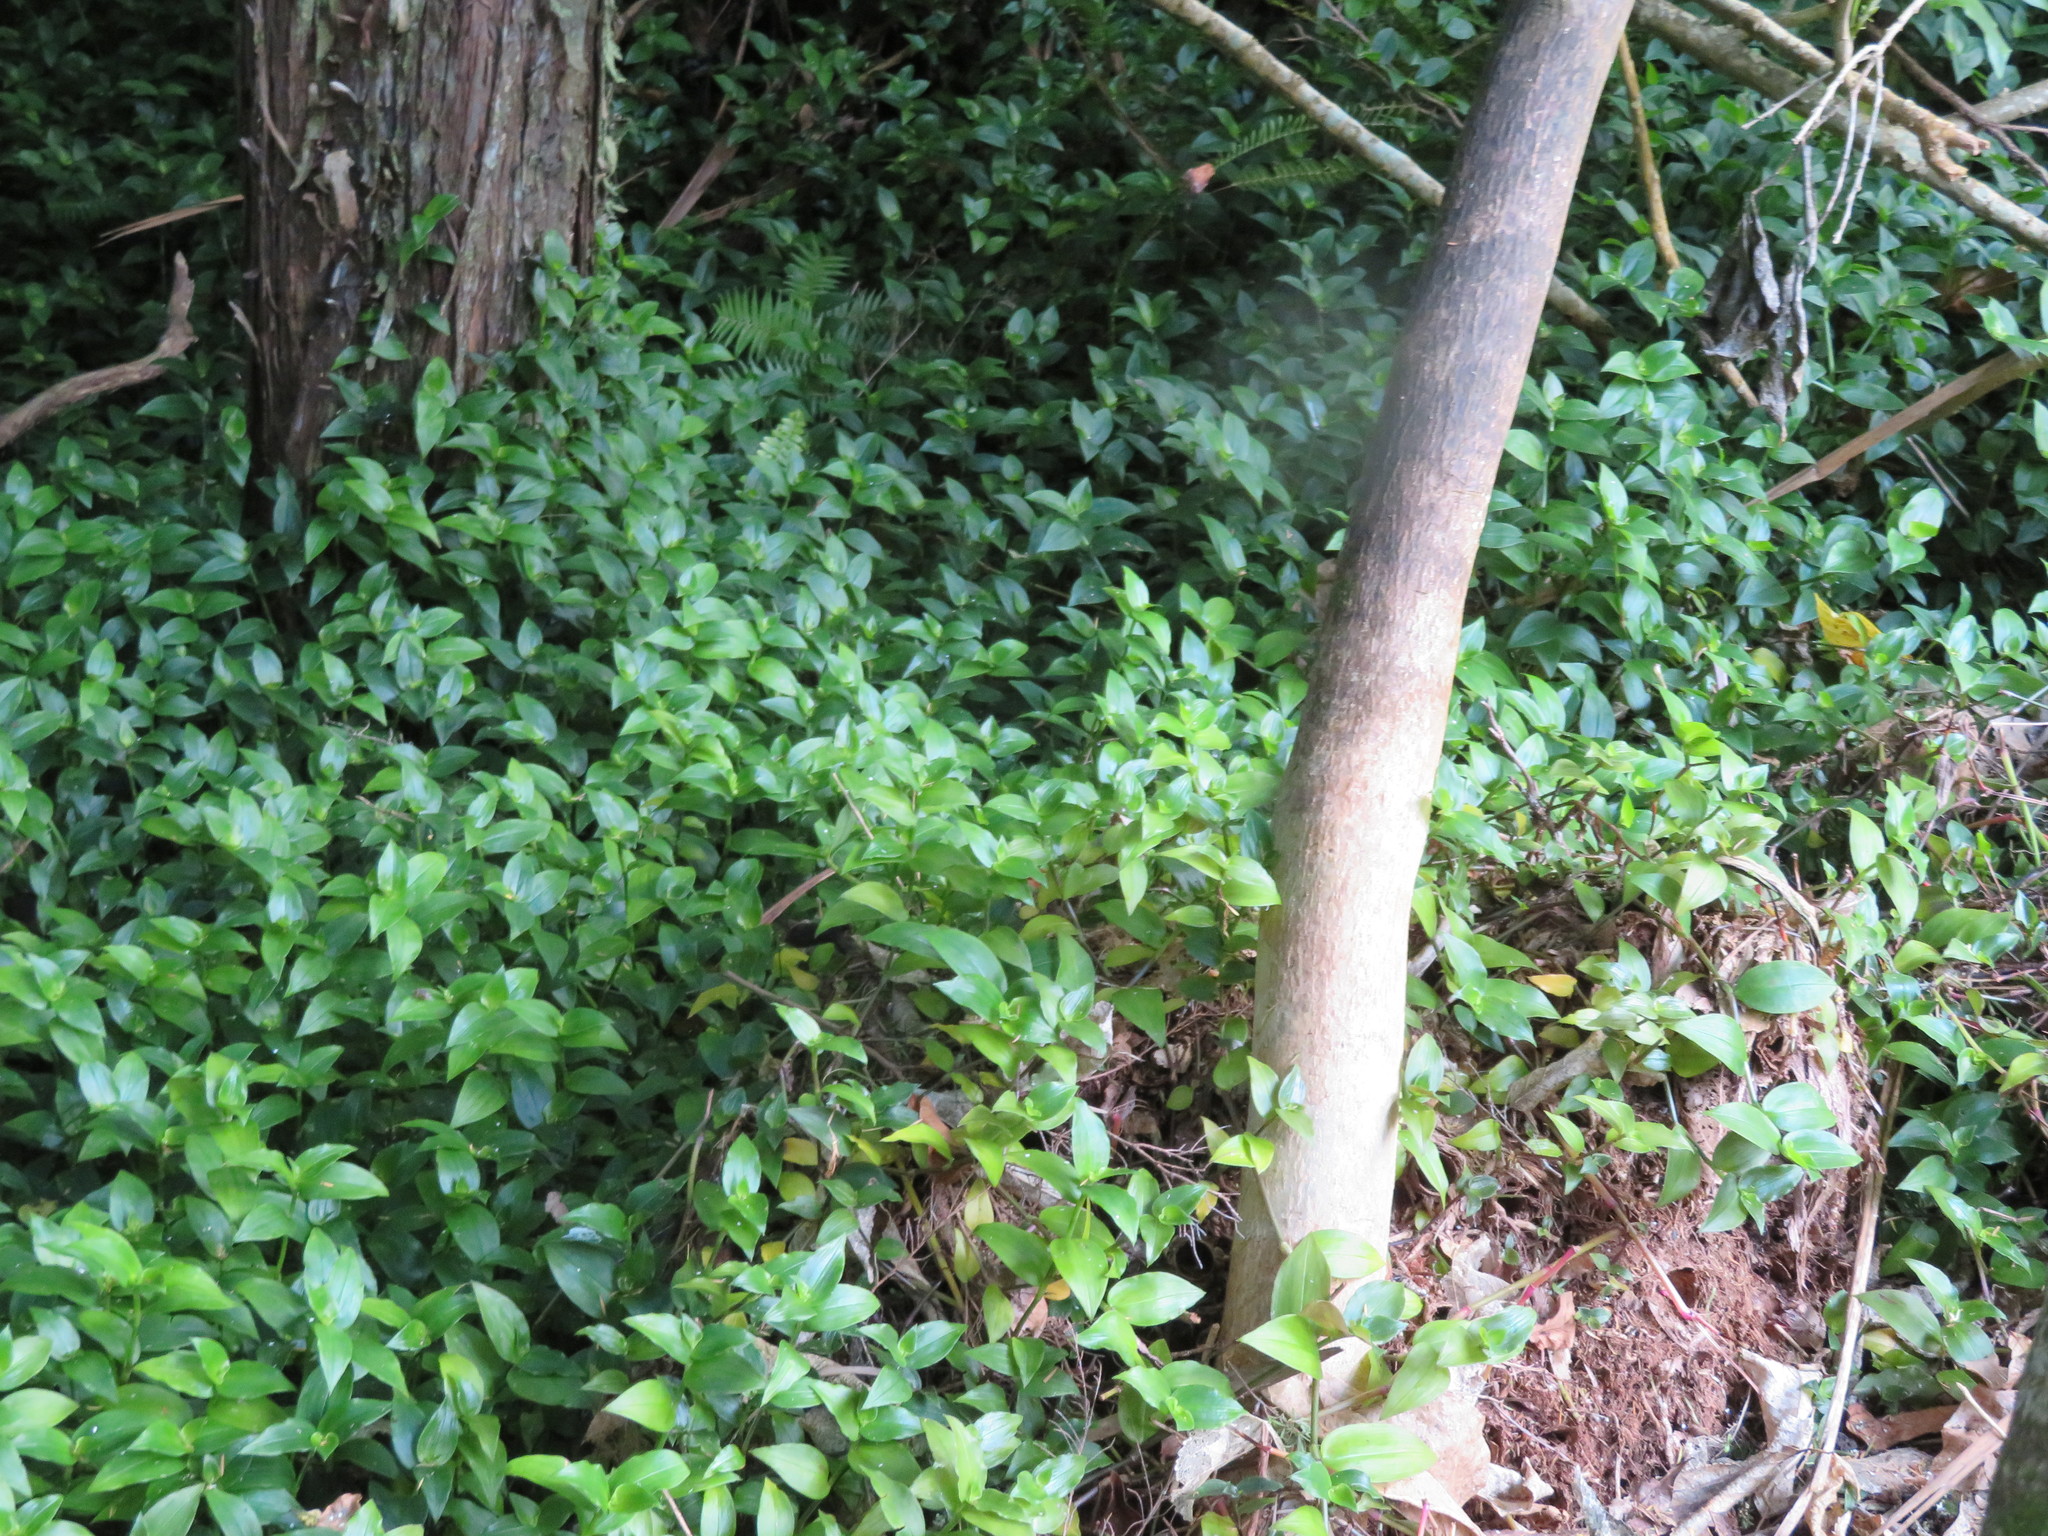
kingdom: Plantae
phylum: Tracheophyta
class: Liliopsida
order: Commelinales
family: Commelinaceae
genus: Tradescantia
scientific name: Tradescantia fluminensis
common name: Wandering-jew
